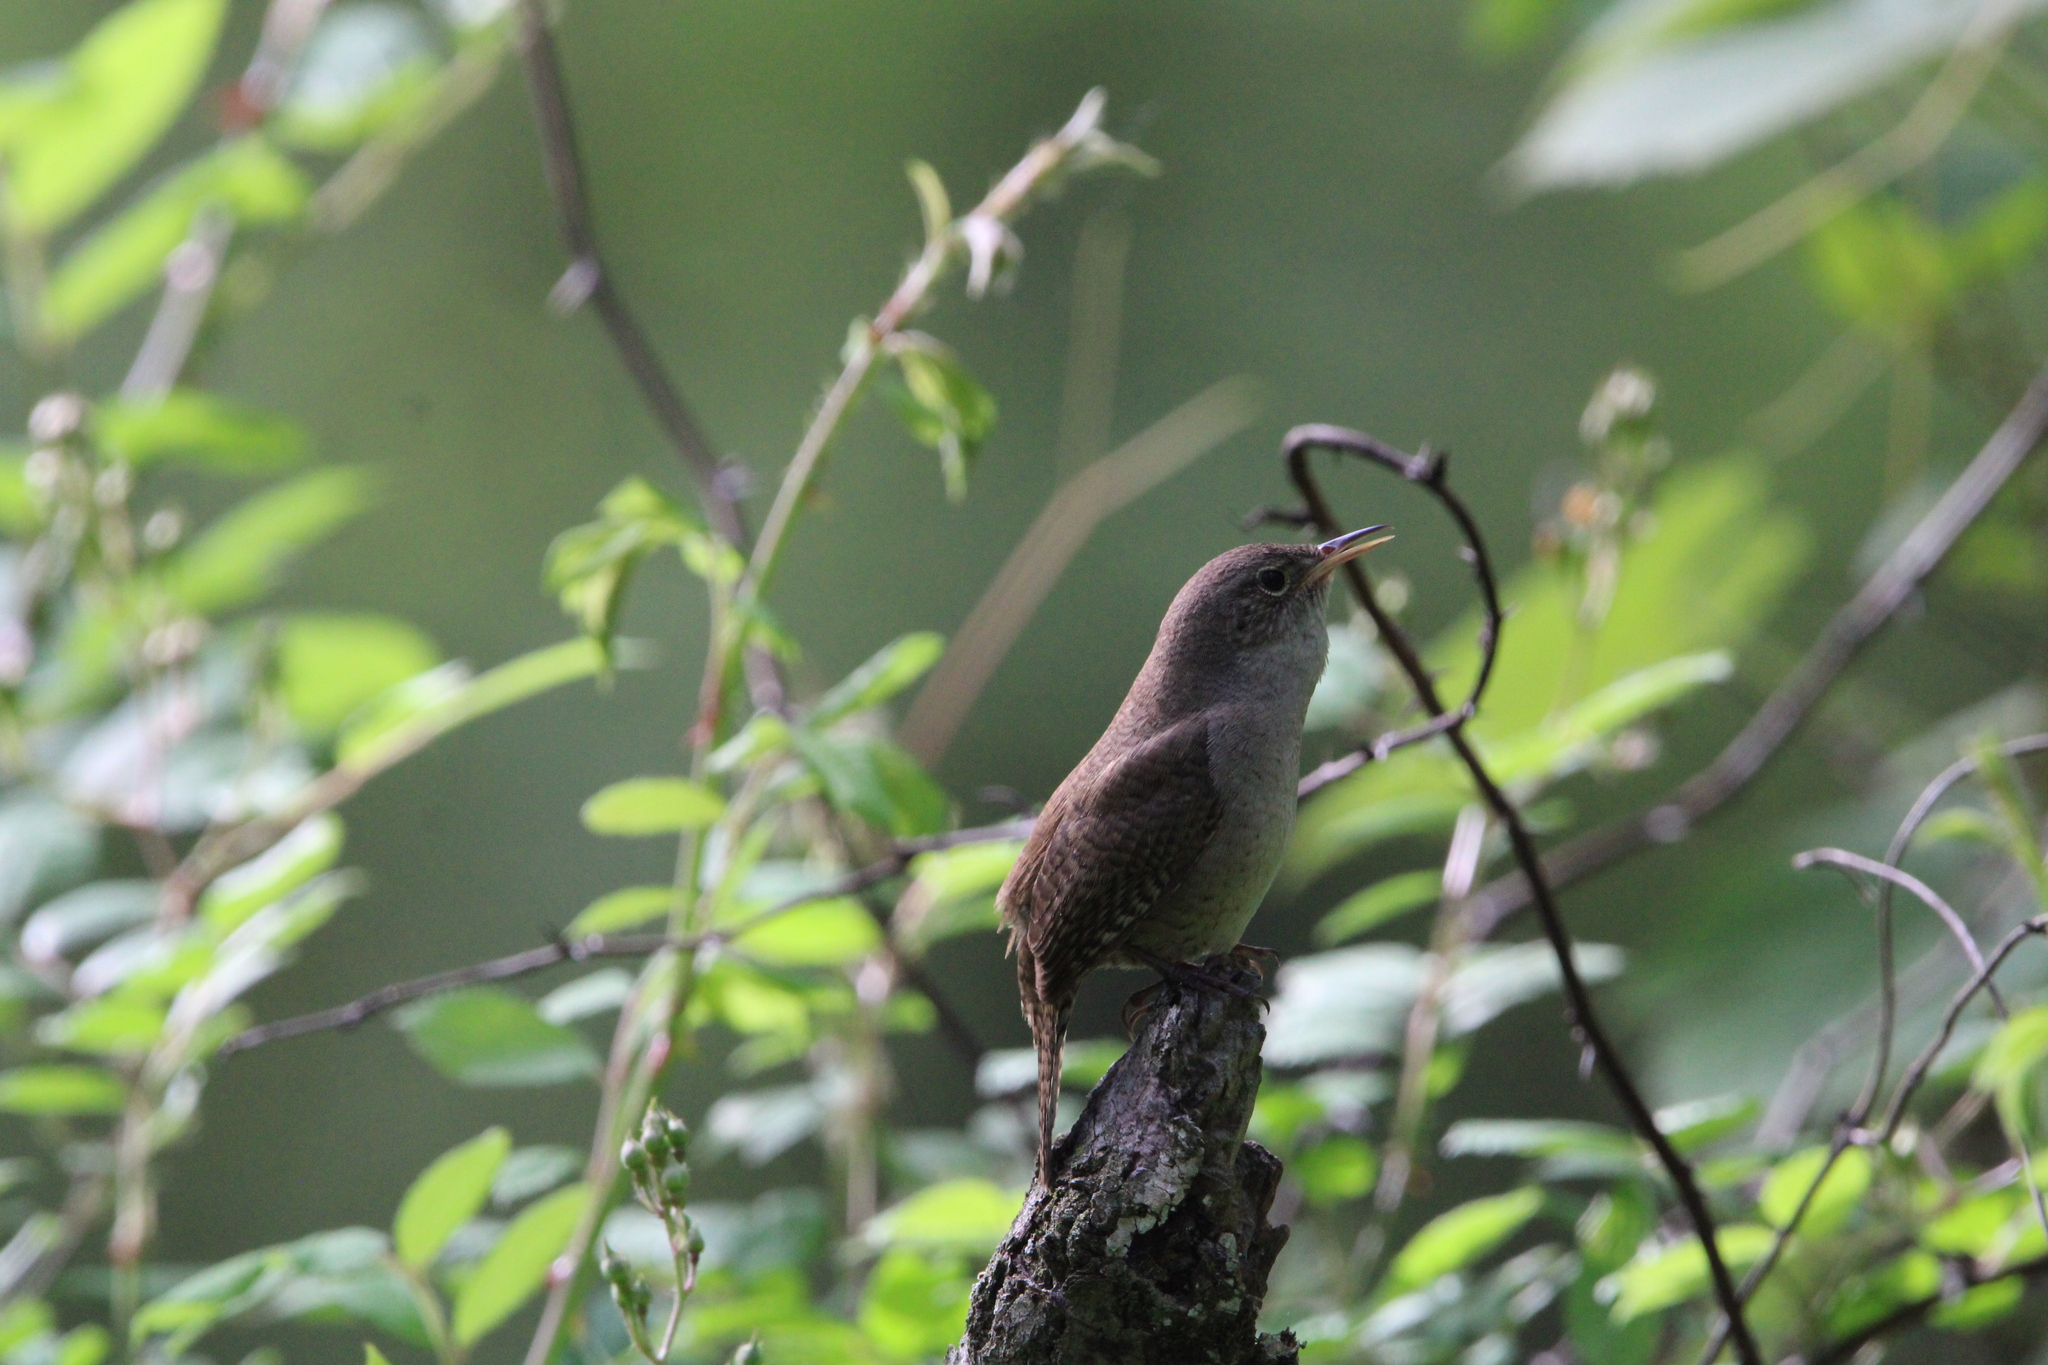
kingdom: Animalia
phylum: Chordata
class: Aves
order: Passeriformes
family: Troglodytidae
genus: Troglodytes
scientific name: Troglodytes aedon
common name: House wren
